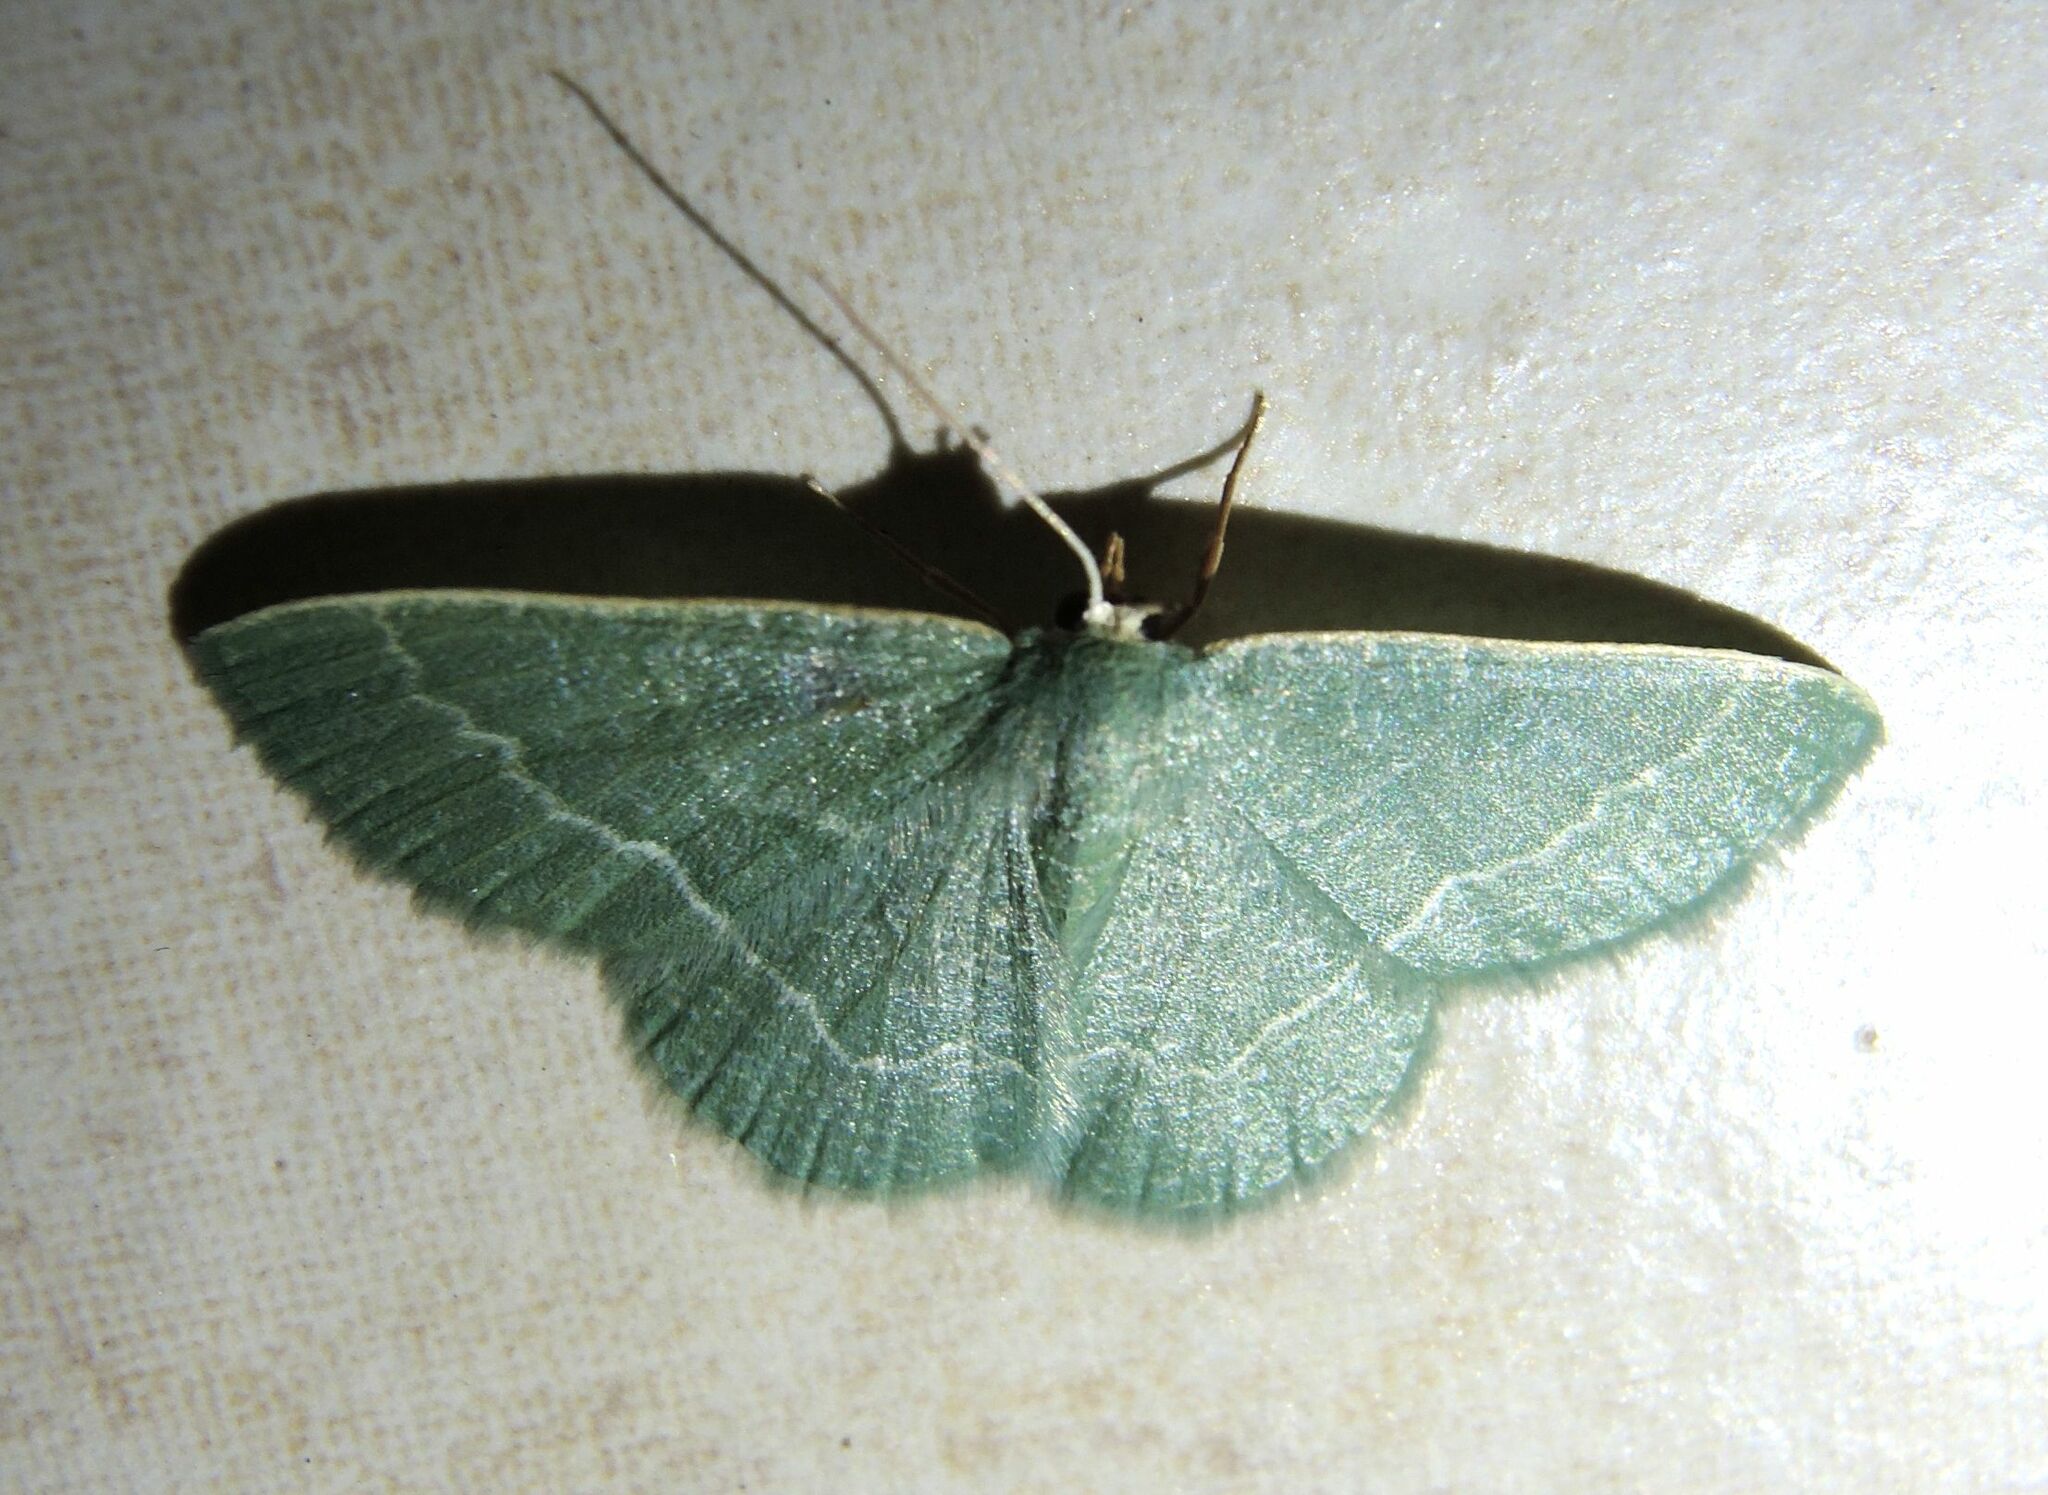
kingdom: Animalia
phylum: Arthropoda
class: Insecta
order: Lepidoptera
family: Geometridae
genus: Chlorissa
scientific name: Chlorissa etruscaria
